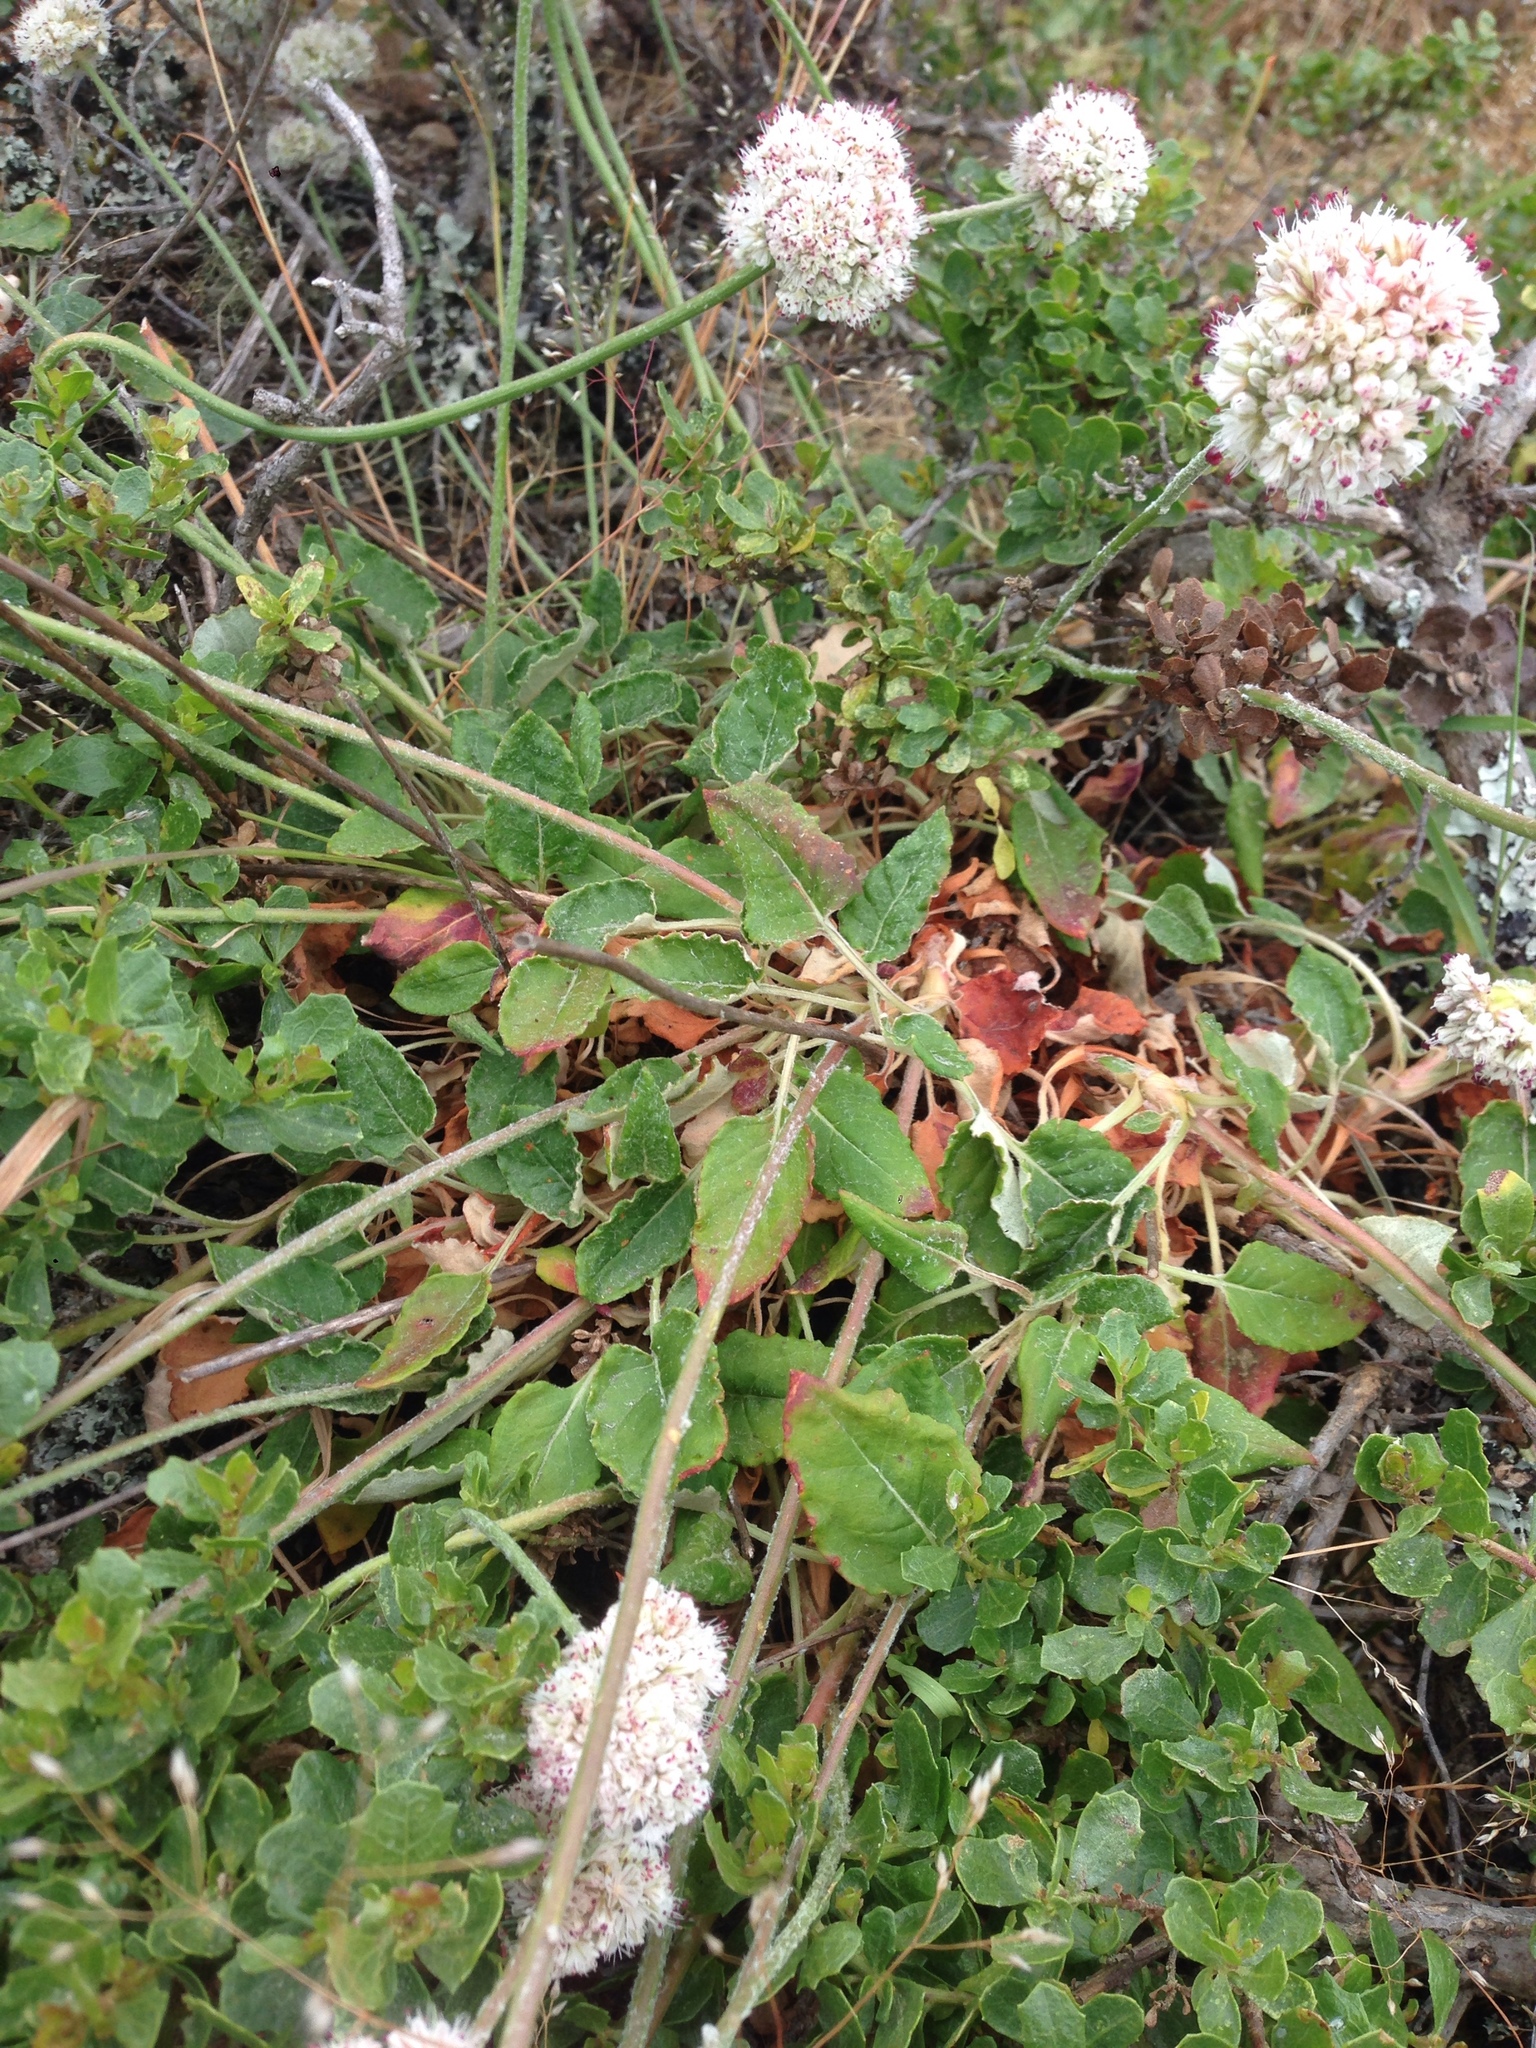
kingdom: Plantae
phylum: Tracheophyta
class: Magnoliopsida
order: Caryophyllales
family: Polygonaceae
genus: Eriogonum
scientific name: Eriogonum latifolium
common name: Seaside wild buckwheat
